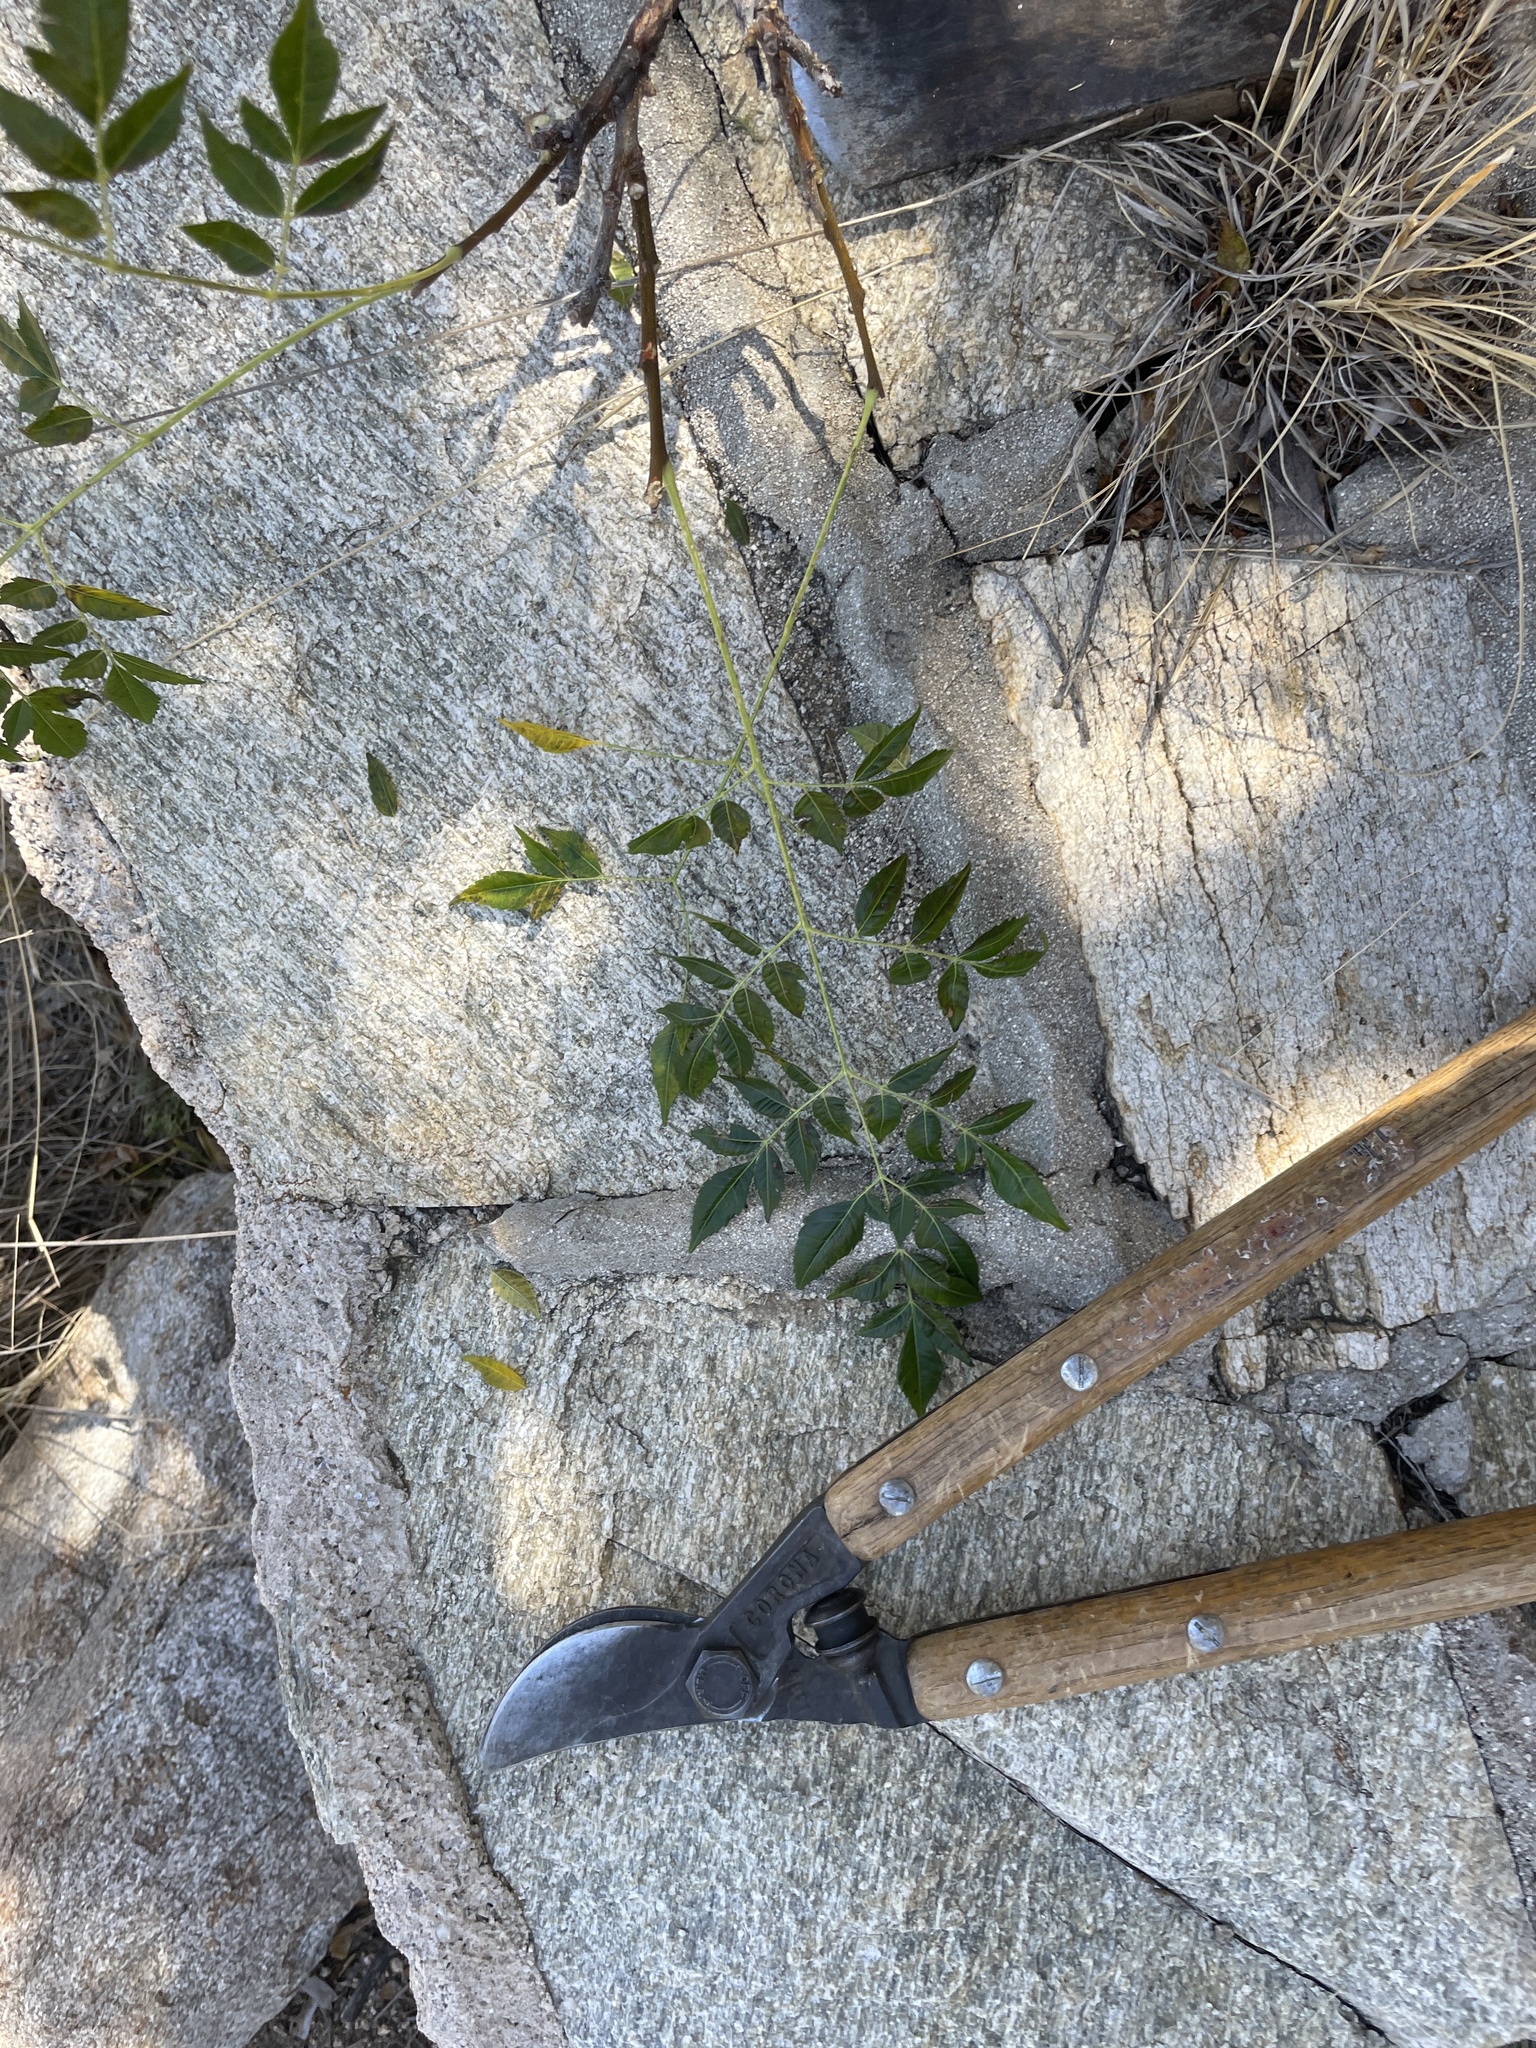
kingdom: Plantae
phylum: Tracheophyta
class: Magnoliopsida
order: Sapindales
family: Meliaceae
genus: Melia
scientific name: Melia azedarach
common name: Chinaberrytree
